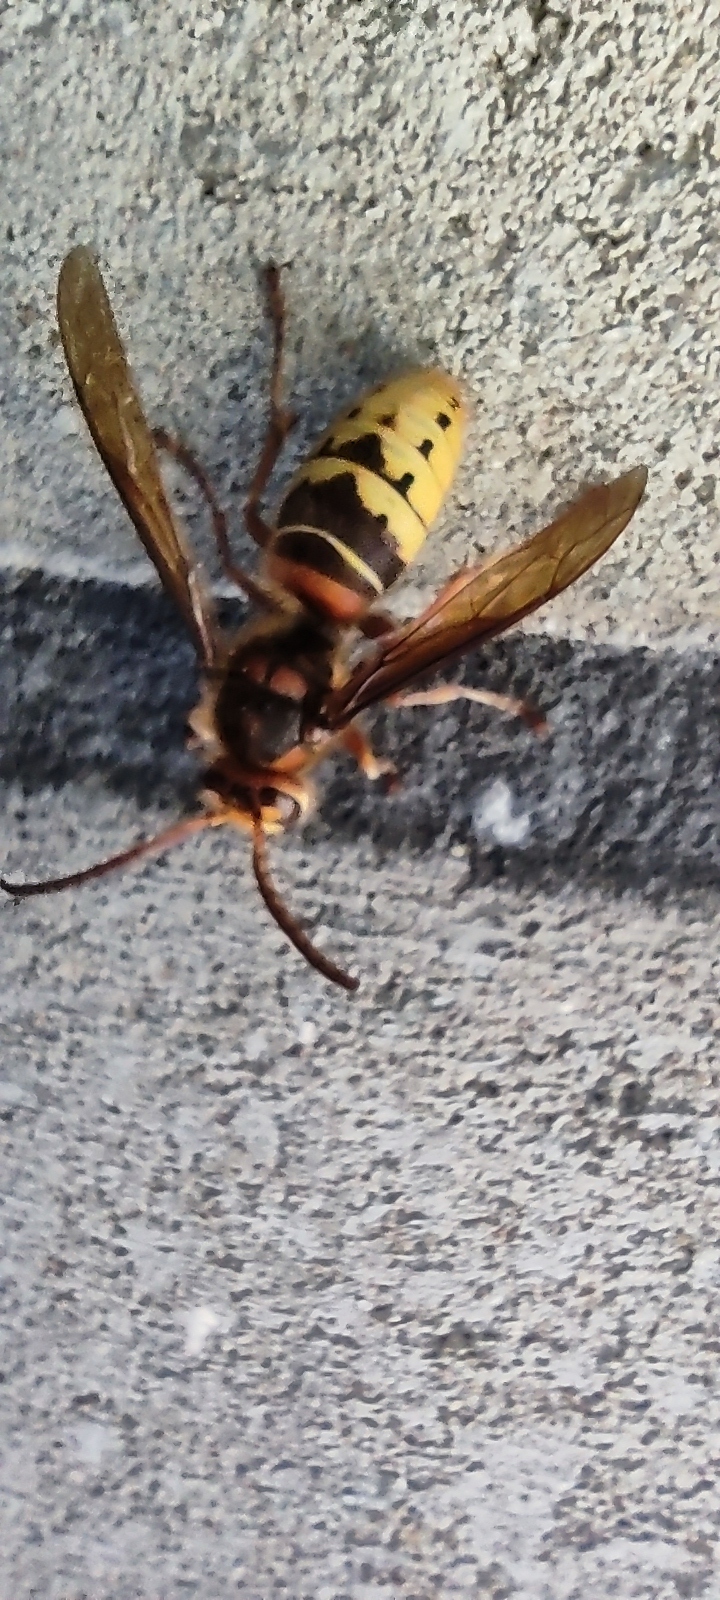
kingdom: Animalia
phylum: Arthropoda
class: Insecta
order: Hymenoptera
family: Vespidae
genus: Vespa
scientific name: Vespa crabro
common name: Hornet
